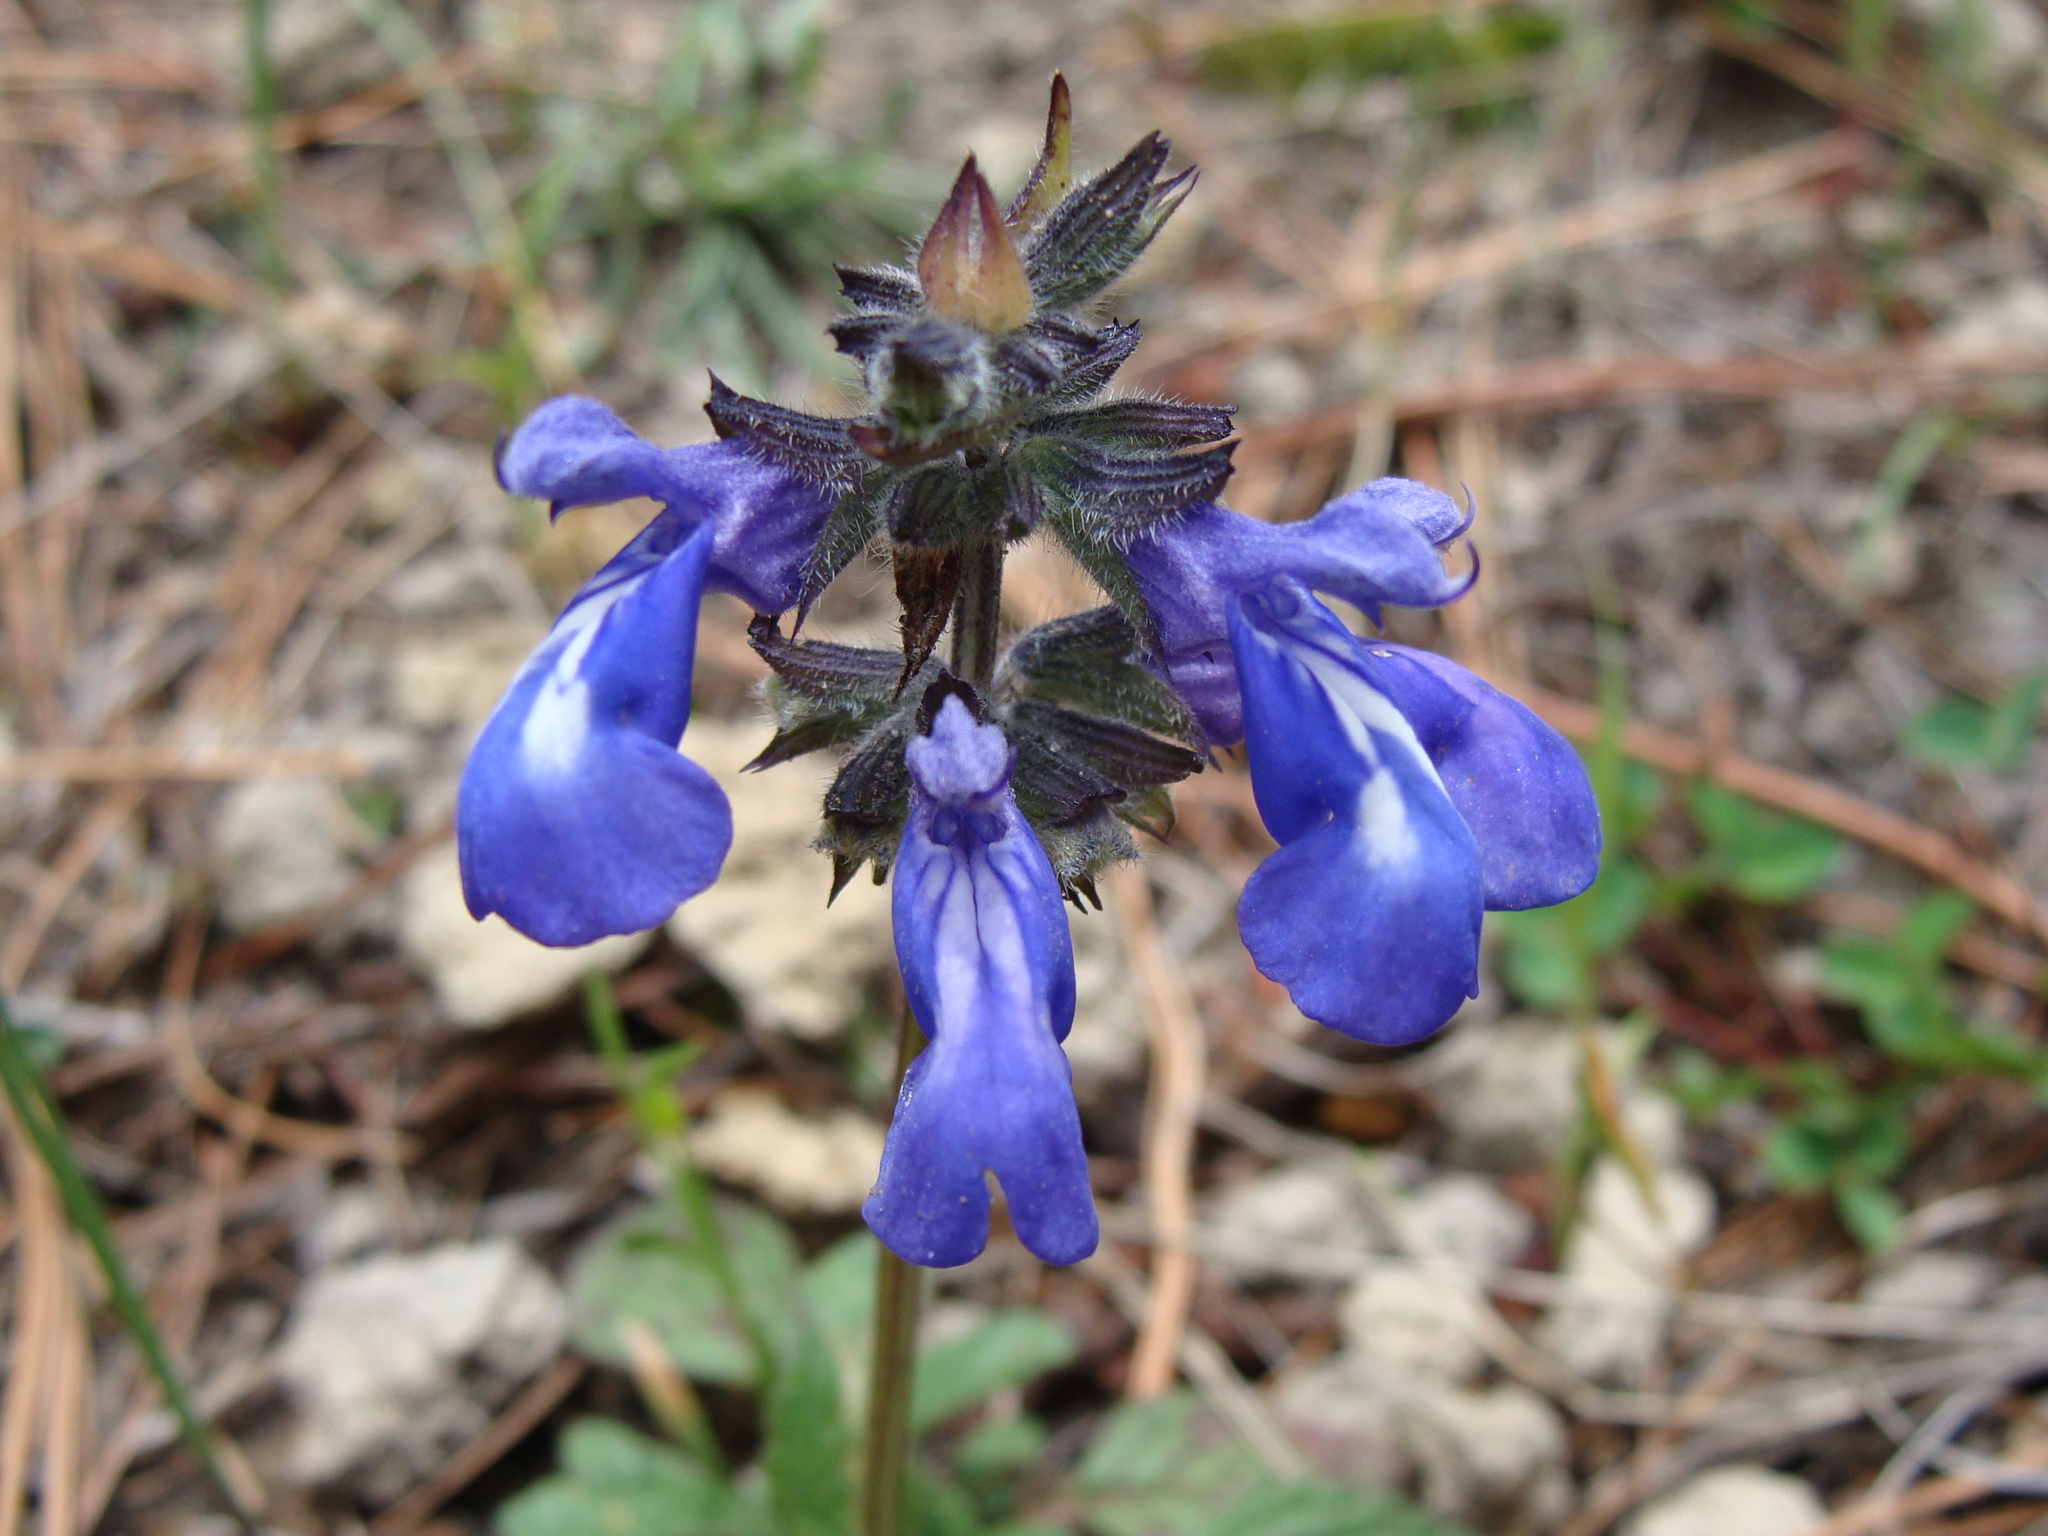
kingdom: Plantae
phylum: Tracheophyta
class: Magnoliopsida
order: Lamiales
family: Lamiaceae
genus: Salvia
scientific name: Salvia prunelloides
